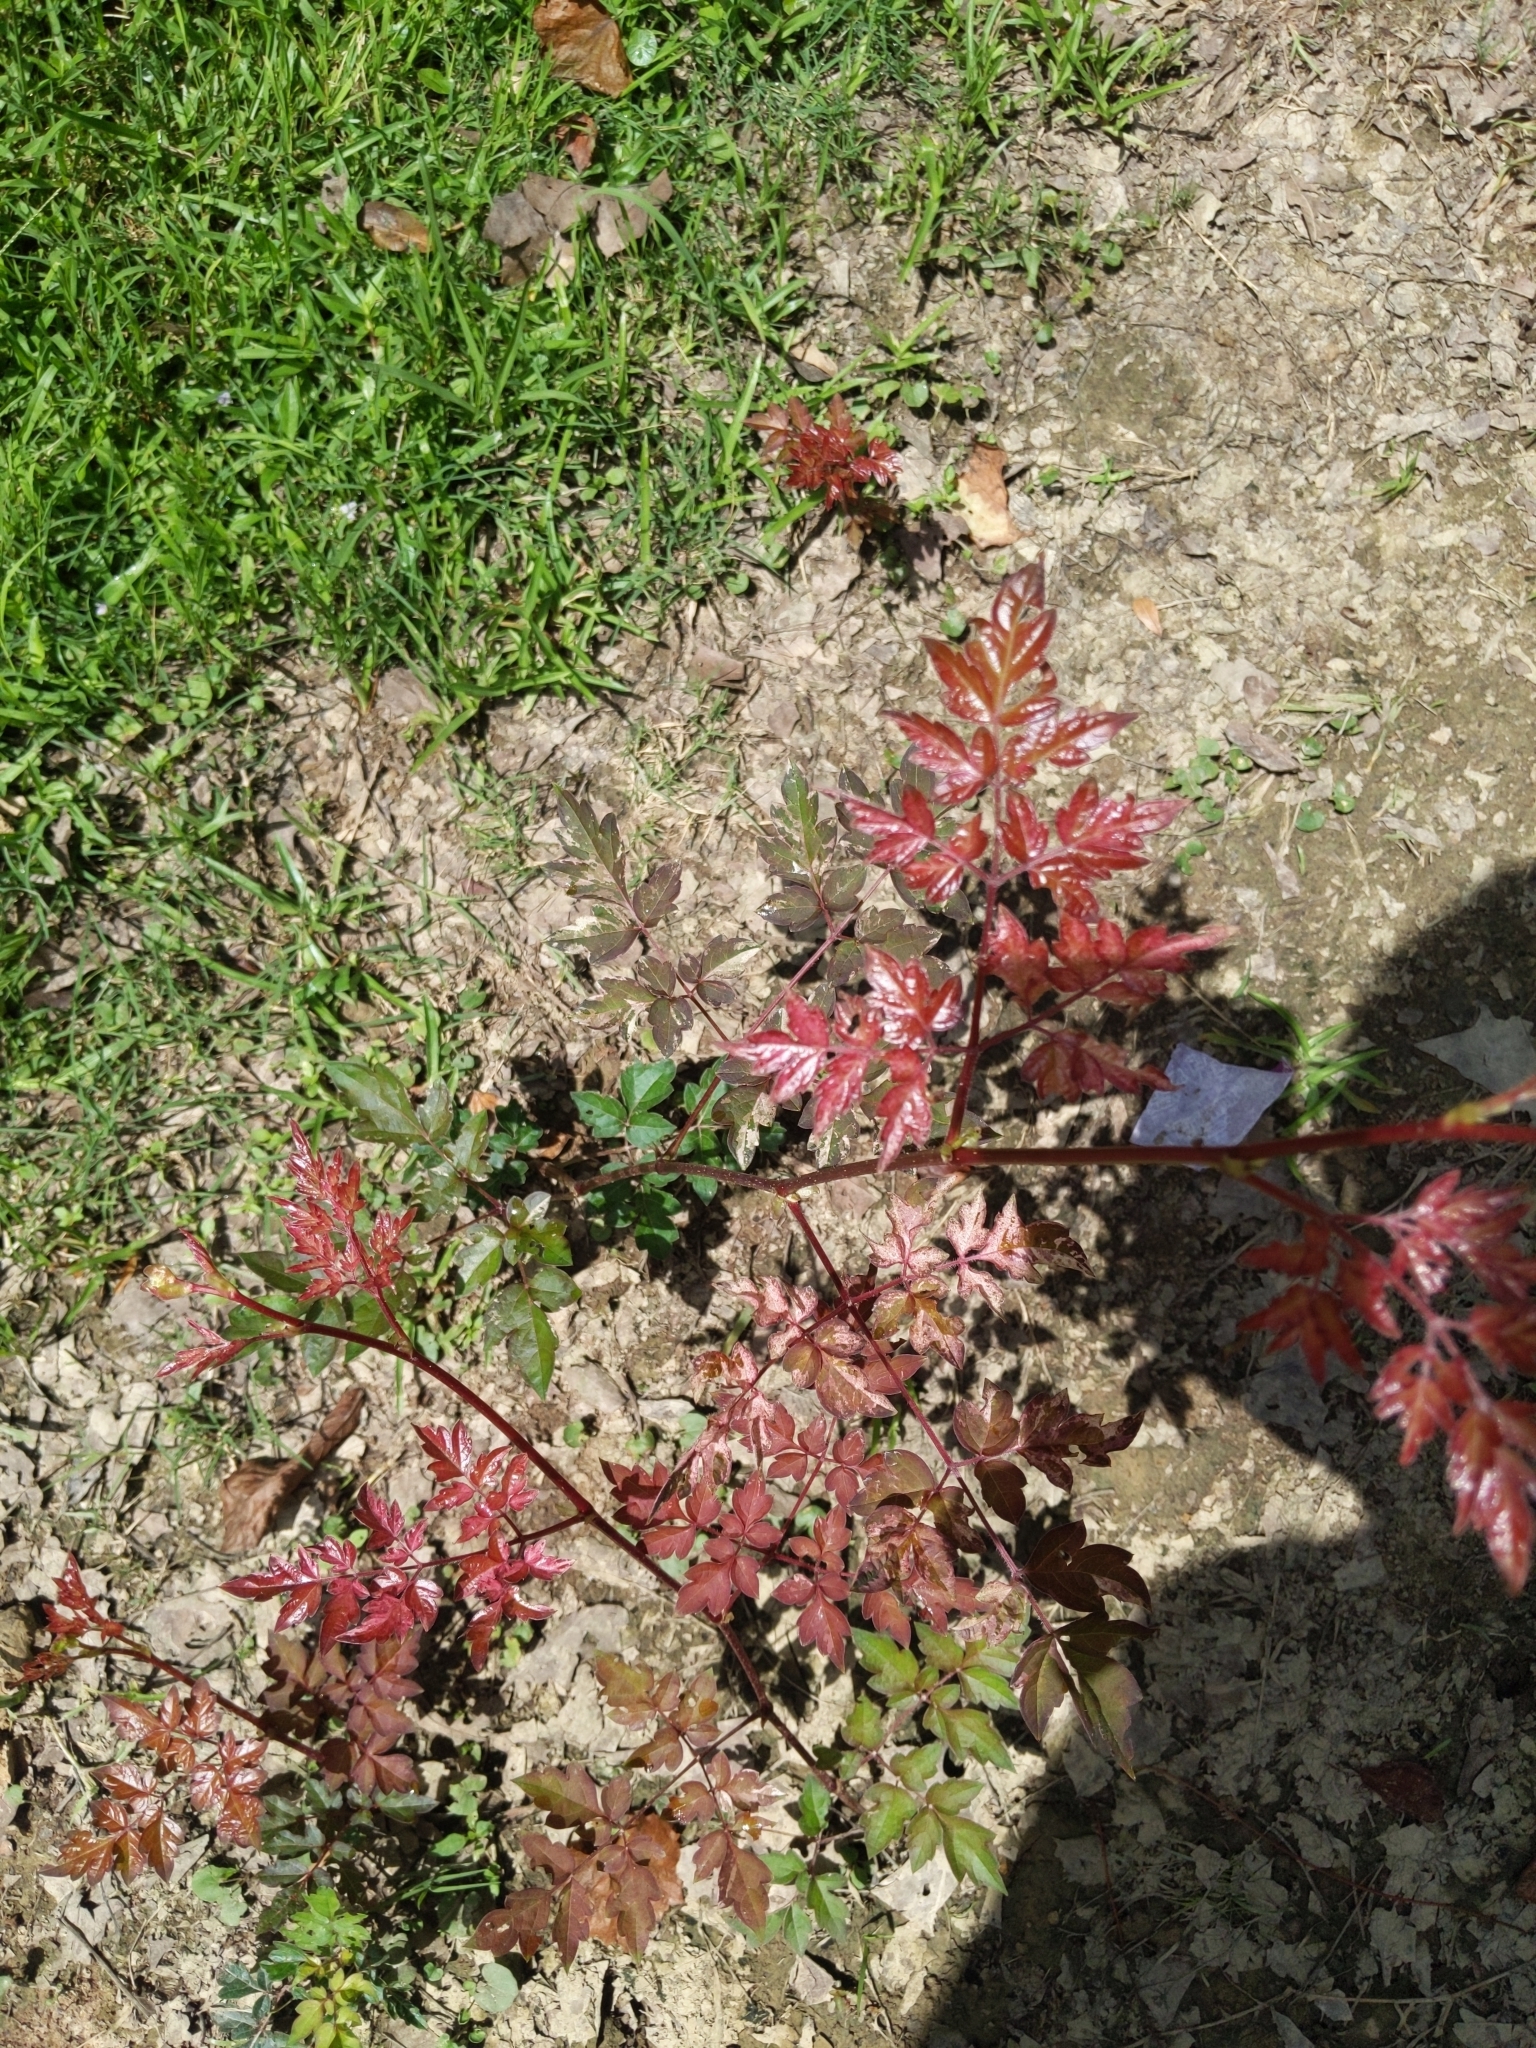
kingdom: Plantae
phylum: Tracheophyta
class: Magnoliopsida
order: Vitales
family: Vitaceae
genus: Nekemias
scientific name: Nekemias arborea
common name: Peppervine
